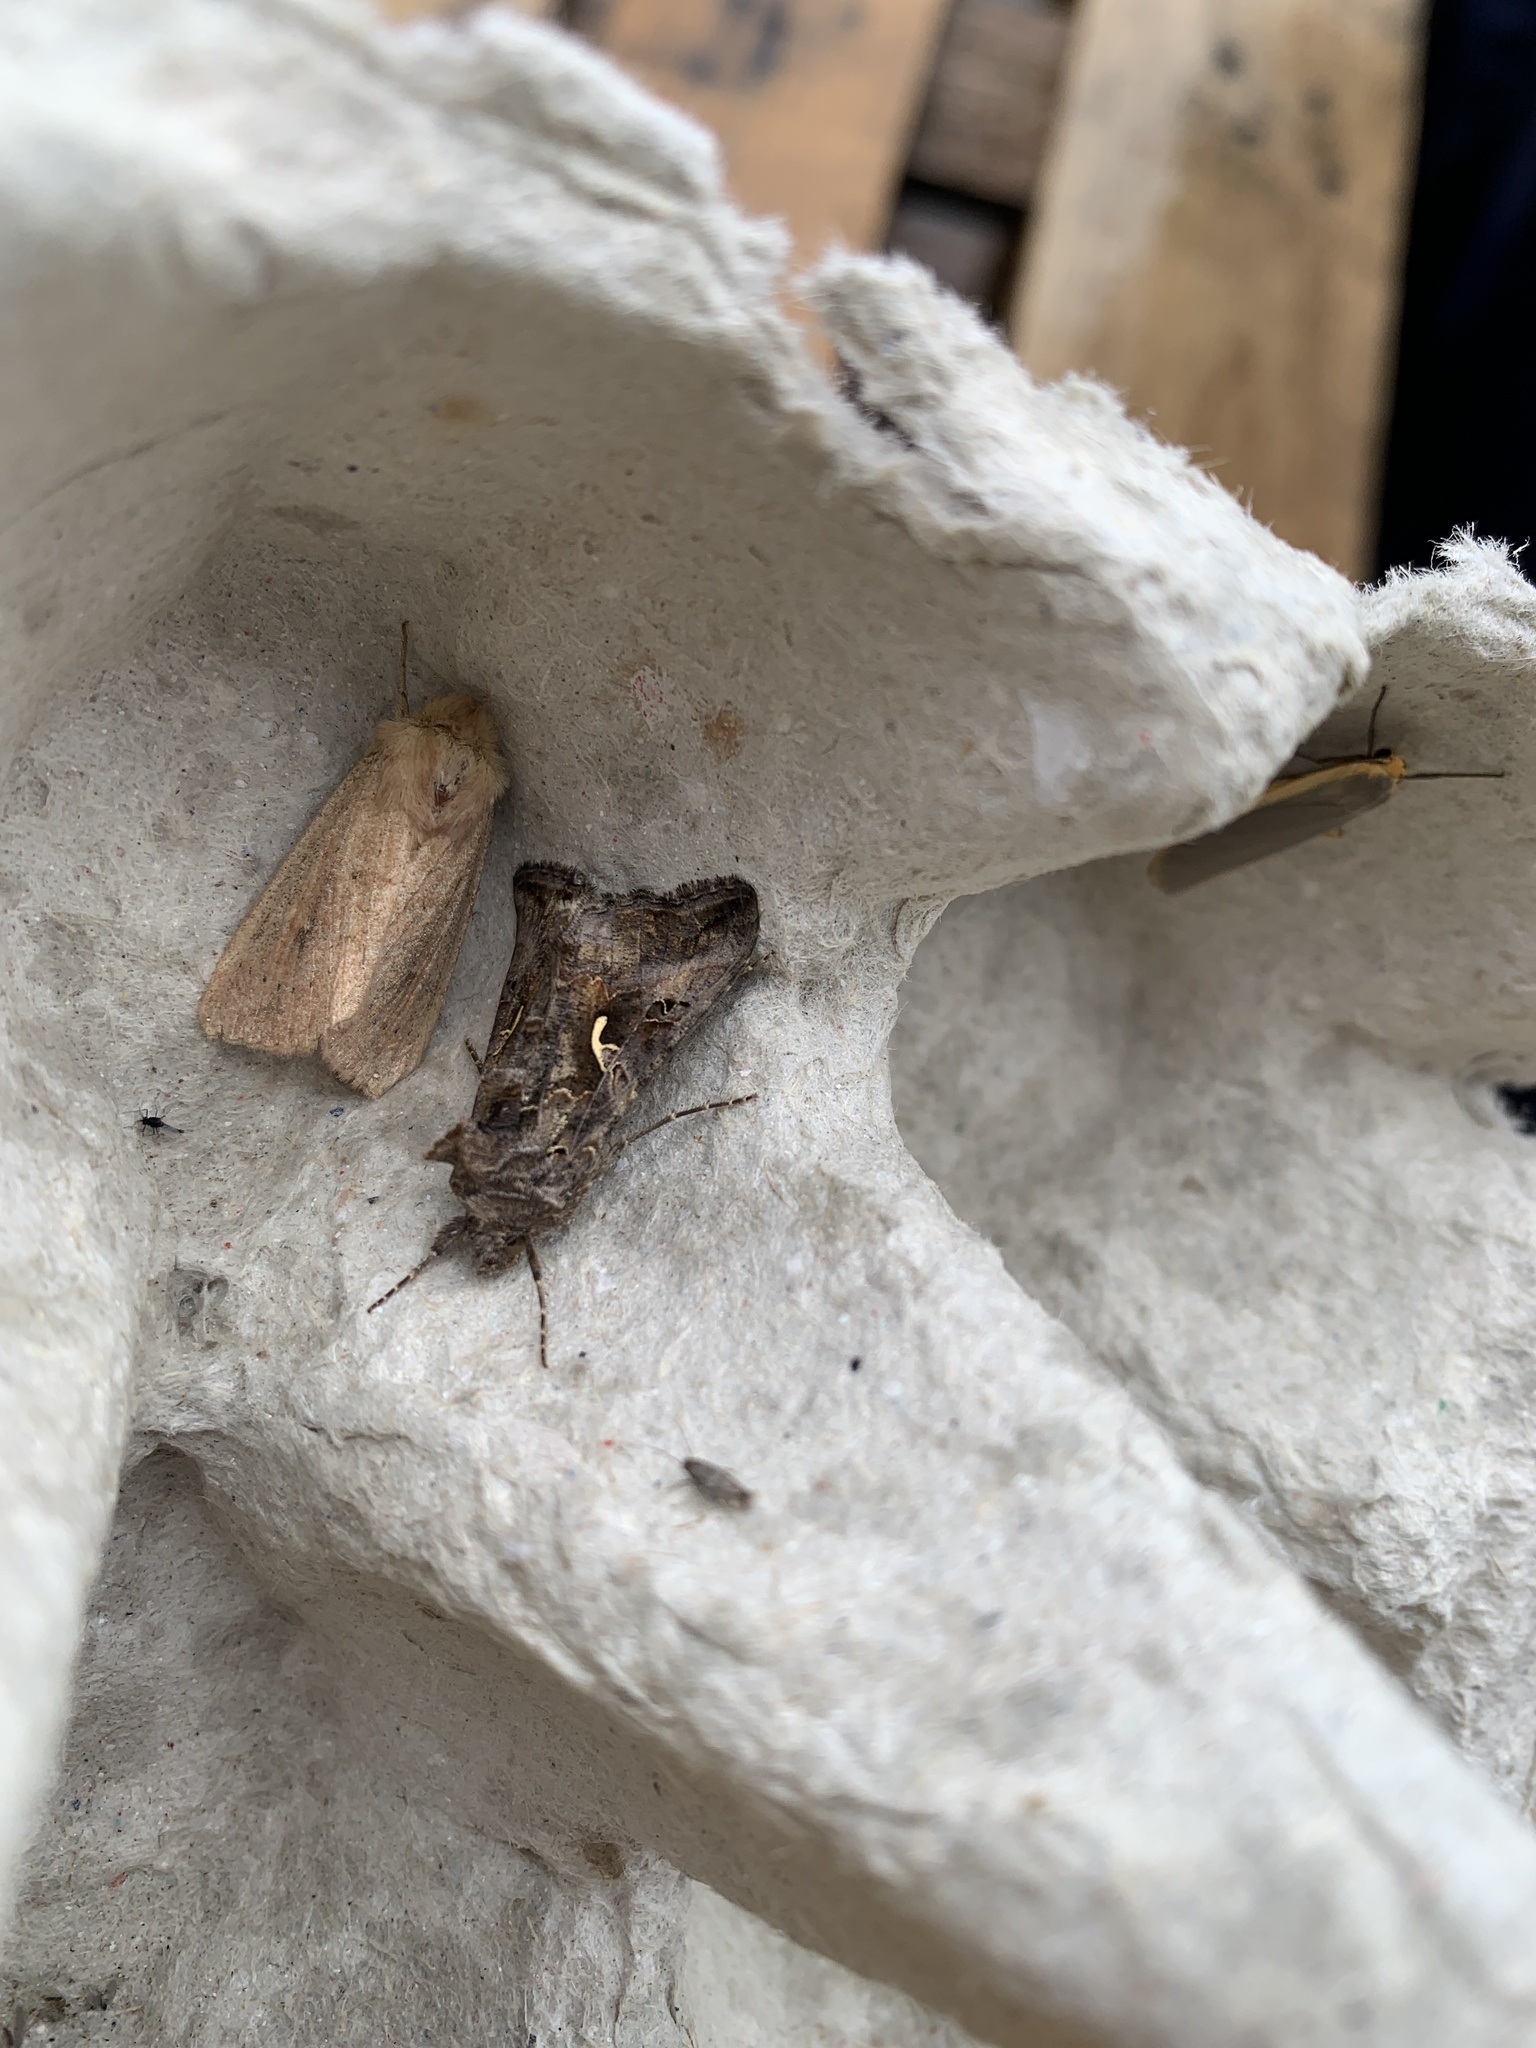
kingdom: Animalia
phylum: Arthropoda
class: Insecta
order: Lepidoptera
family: Noctuidae
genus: Autographa
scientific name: Autographa gamma
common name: Silver y
